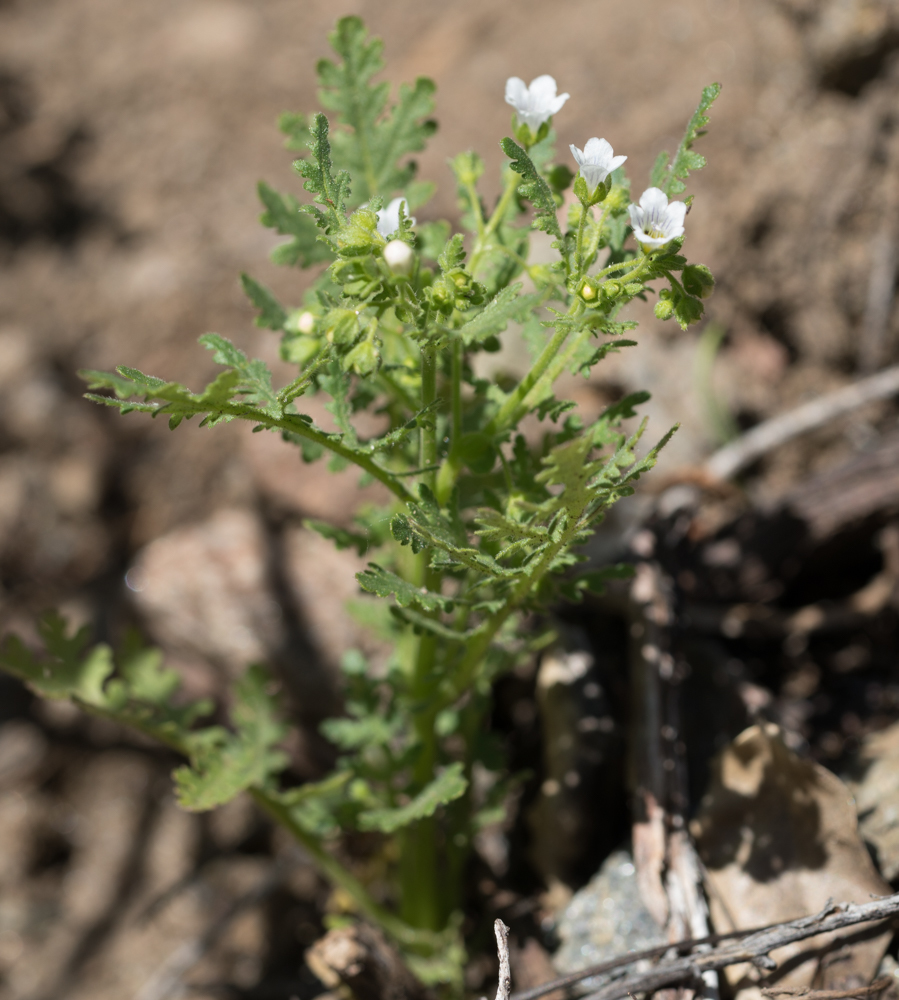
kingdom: Plantae
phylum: Tracheophyta
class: Magnoliopsida
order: Boraginales
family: Hydrophyllaceae
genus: Eucrypta
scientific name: Eucrypta chrysanthemifolia
